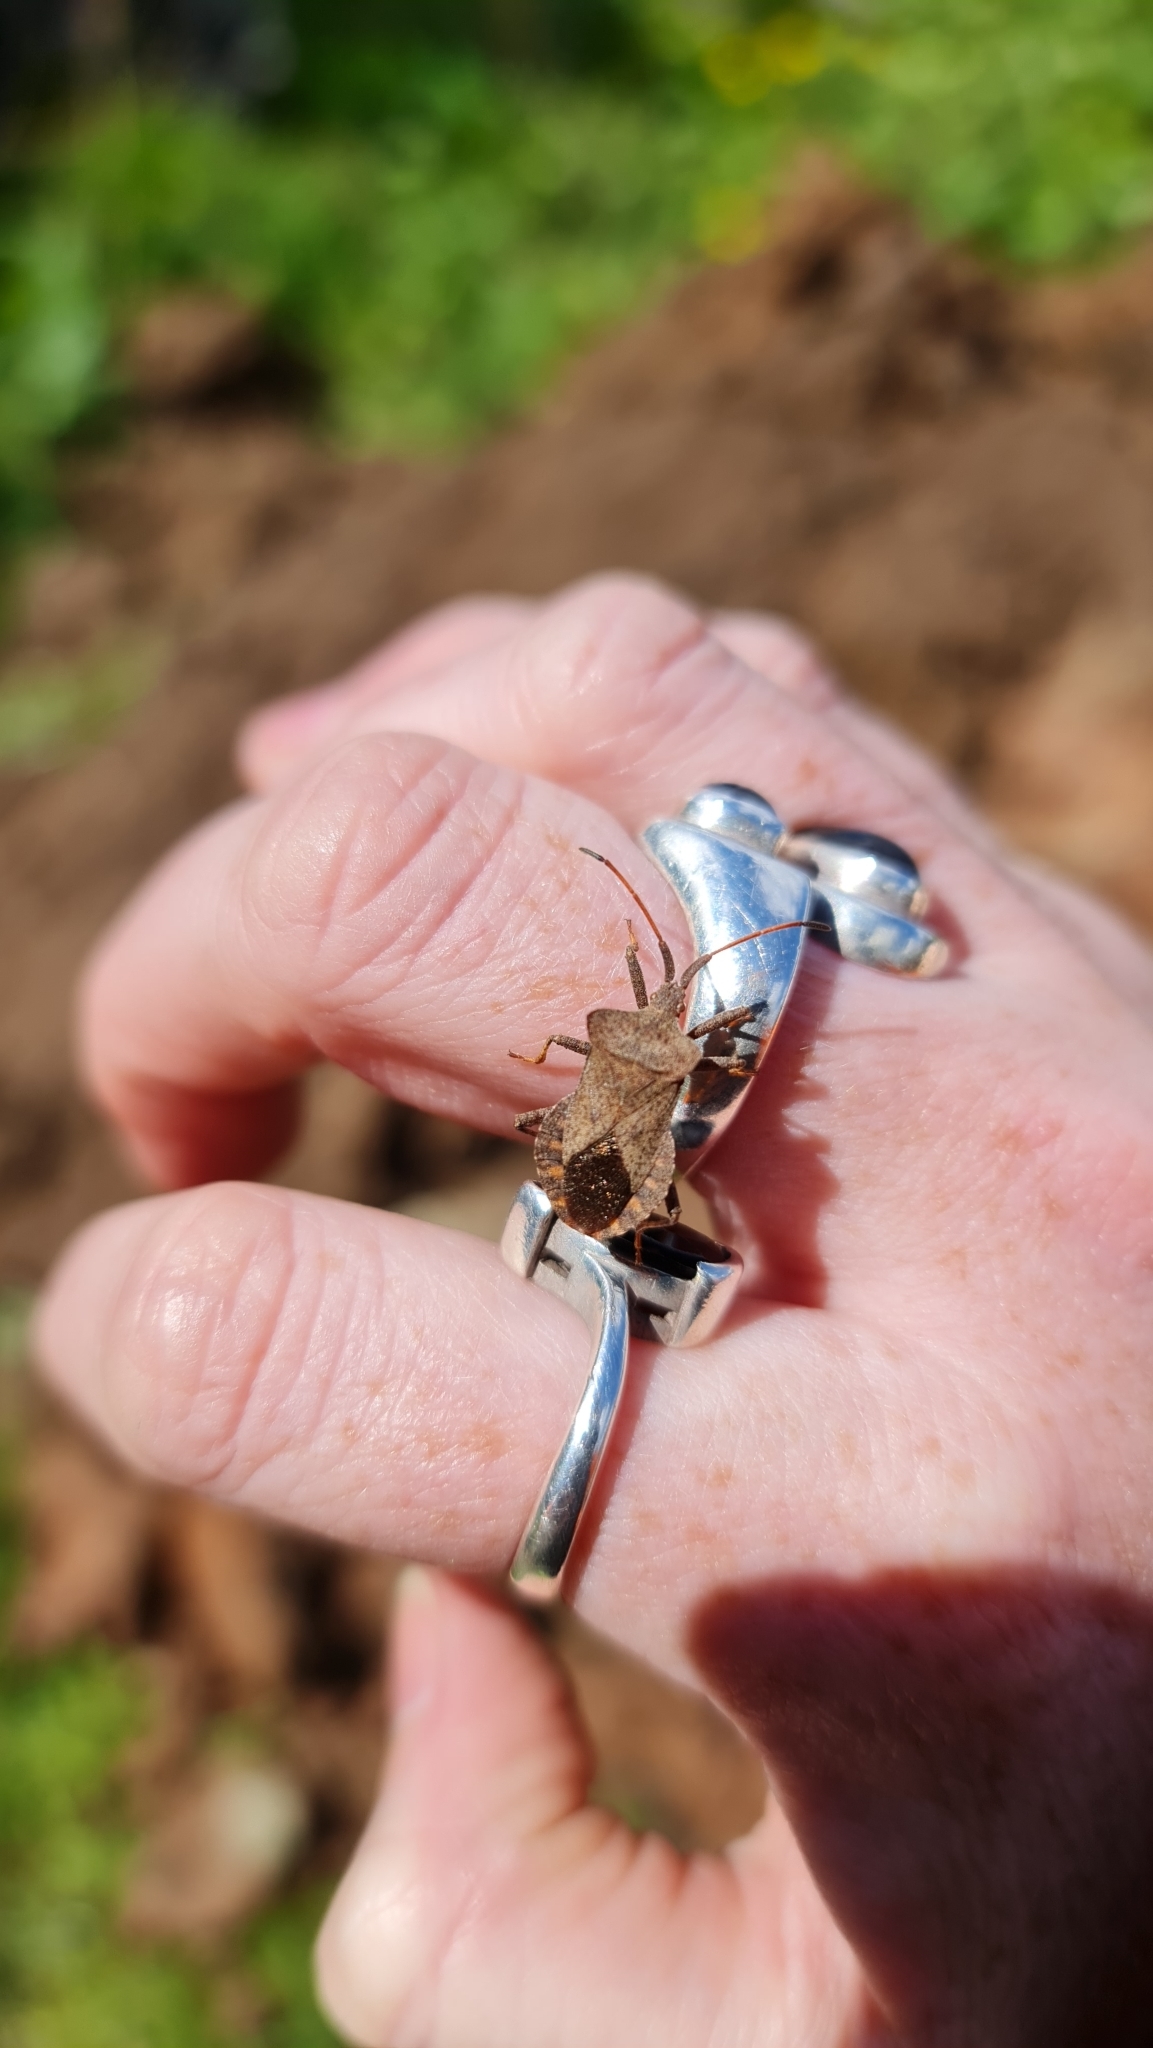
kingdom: Animalia
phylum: Arthropoda
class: Insecta
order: Hemiptera
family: Coreidae
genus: Coreus
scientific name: Coreus marginatus
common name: Dock bug
